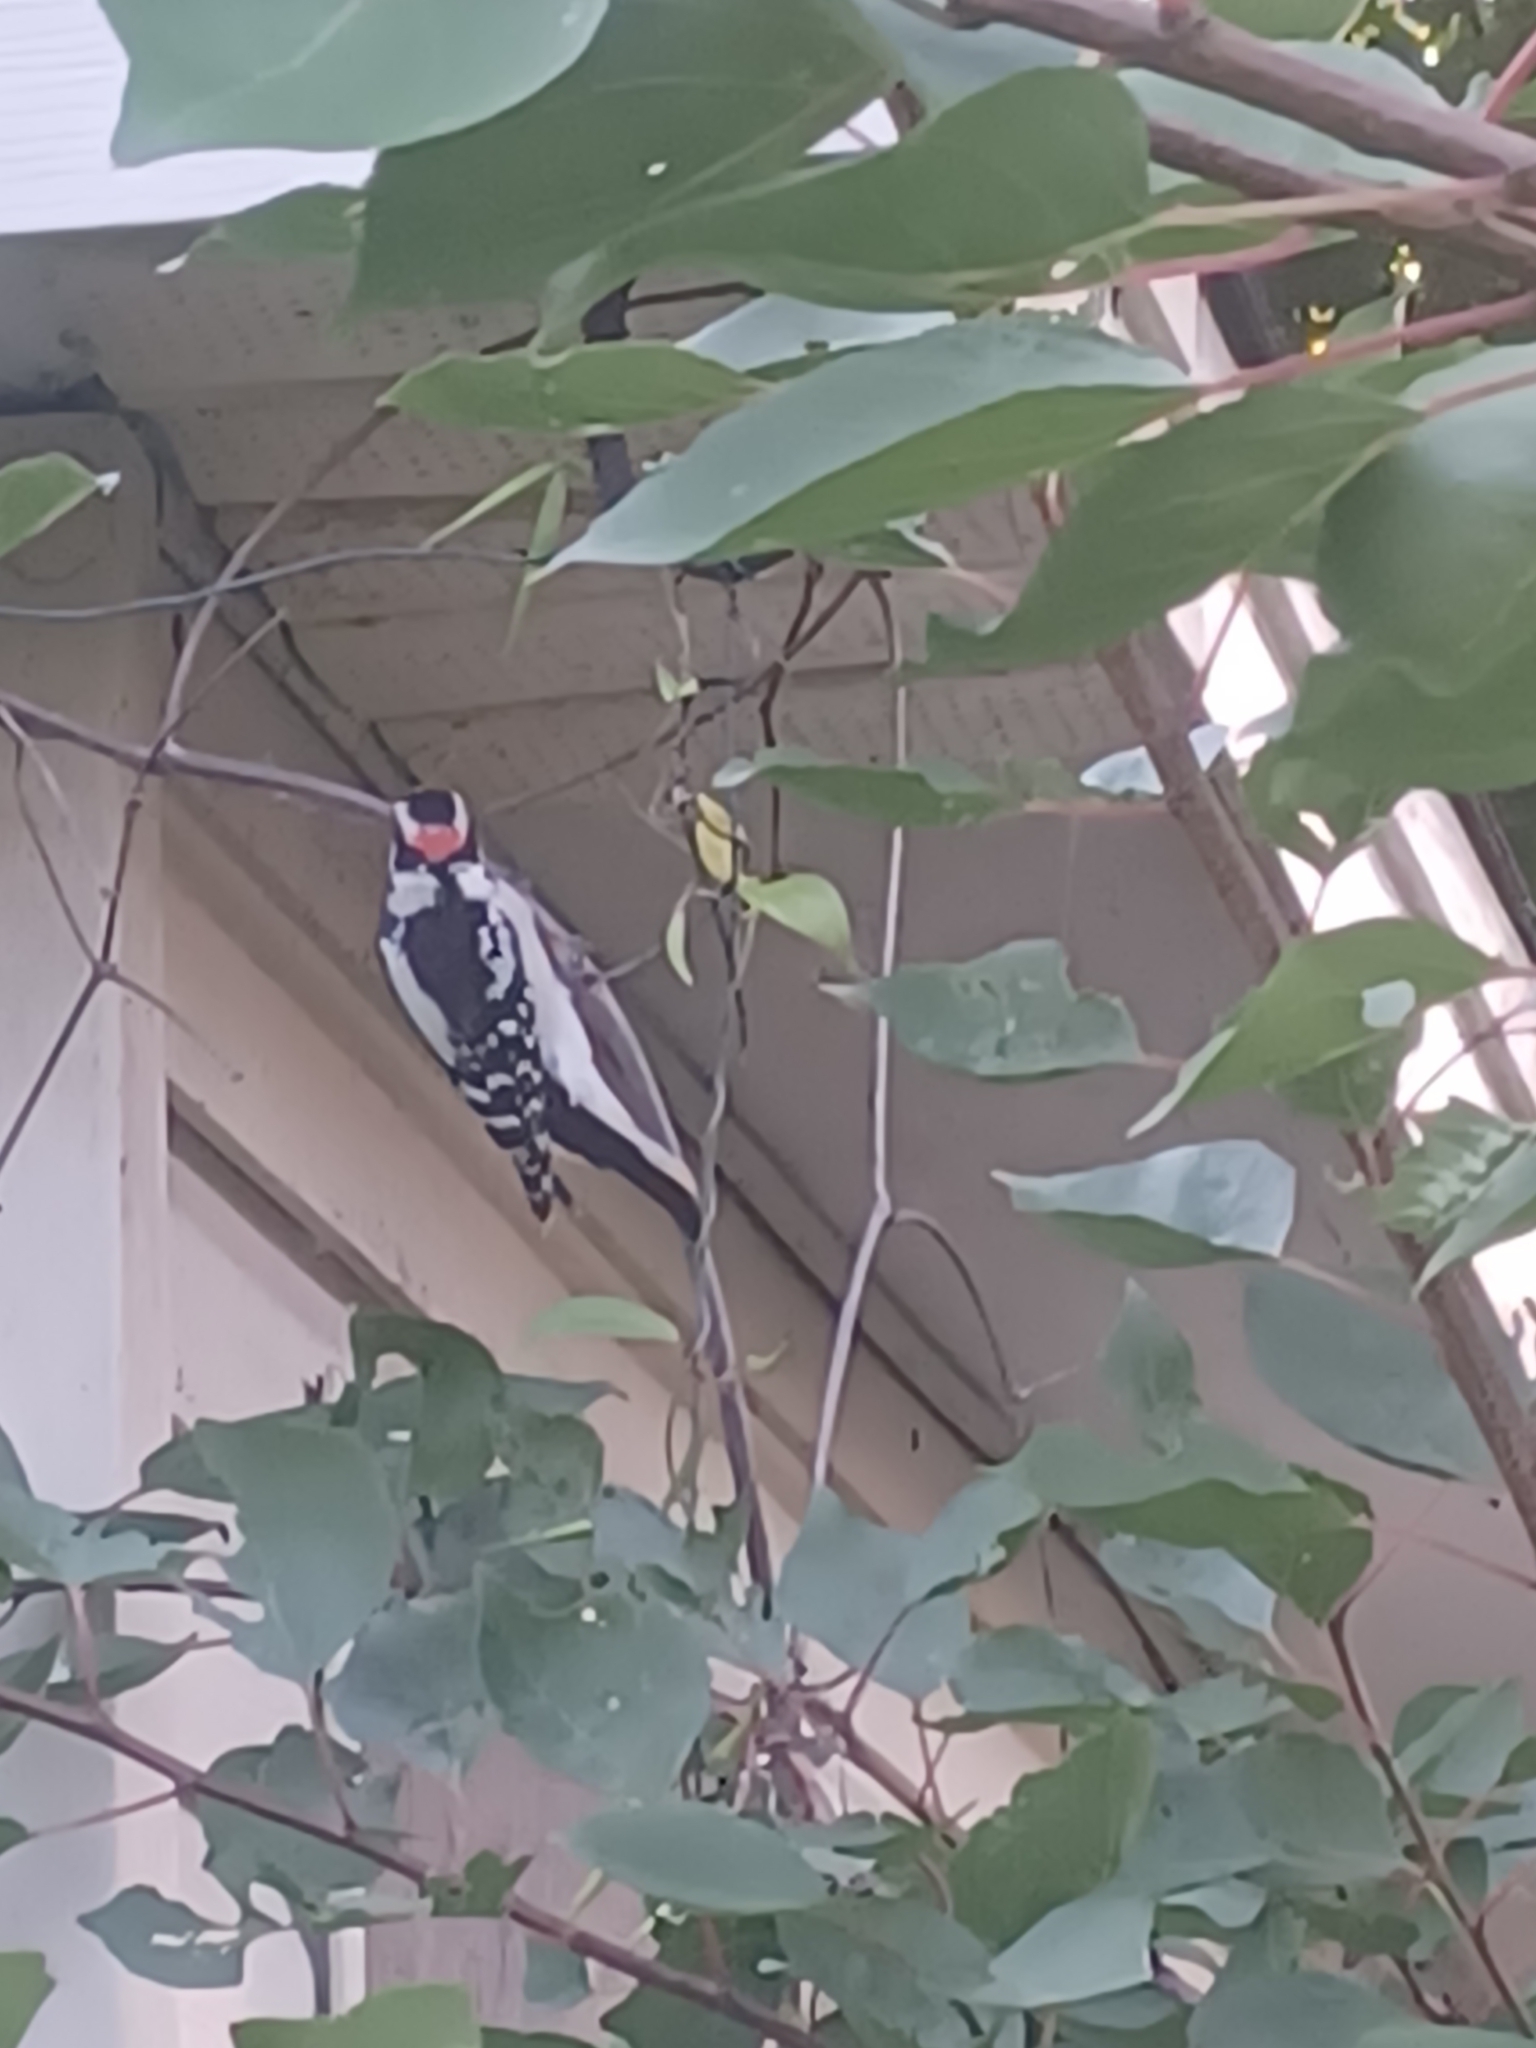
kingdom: Animalia
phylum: Chordata
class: Aves
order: Piciformes
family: Picidae
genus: Dryobates
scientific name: Dryobates pubescens
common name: Downy woodpecker
